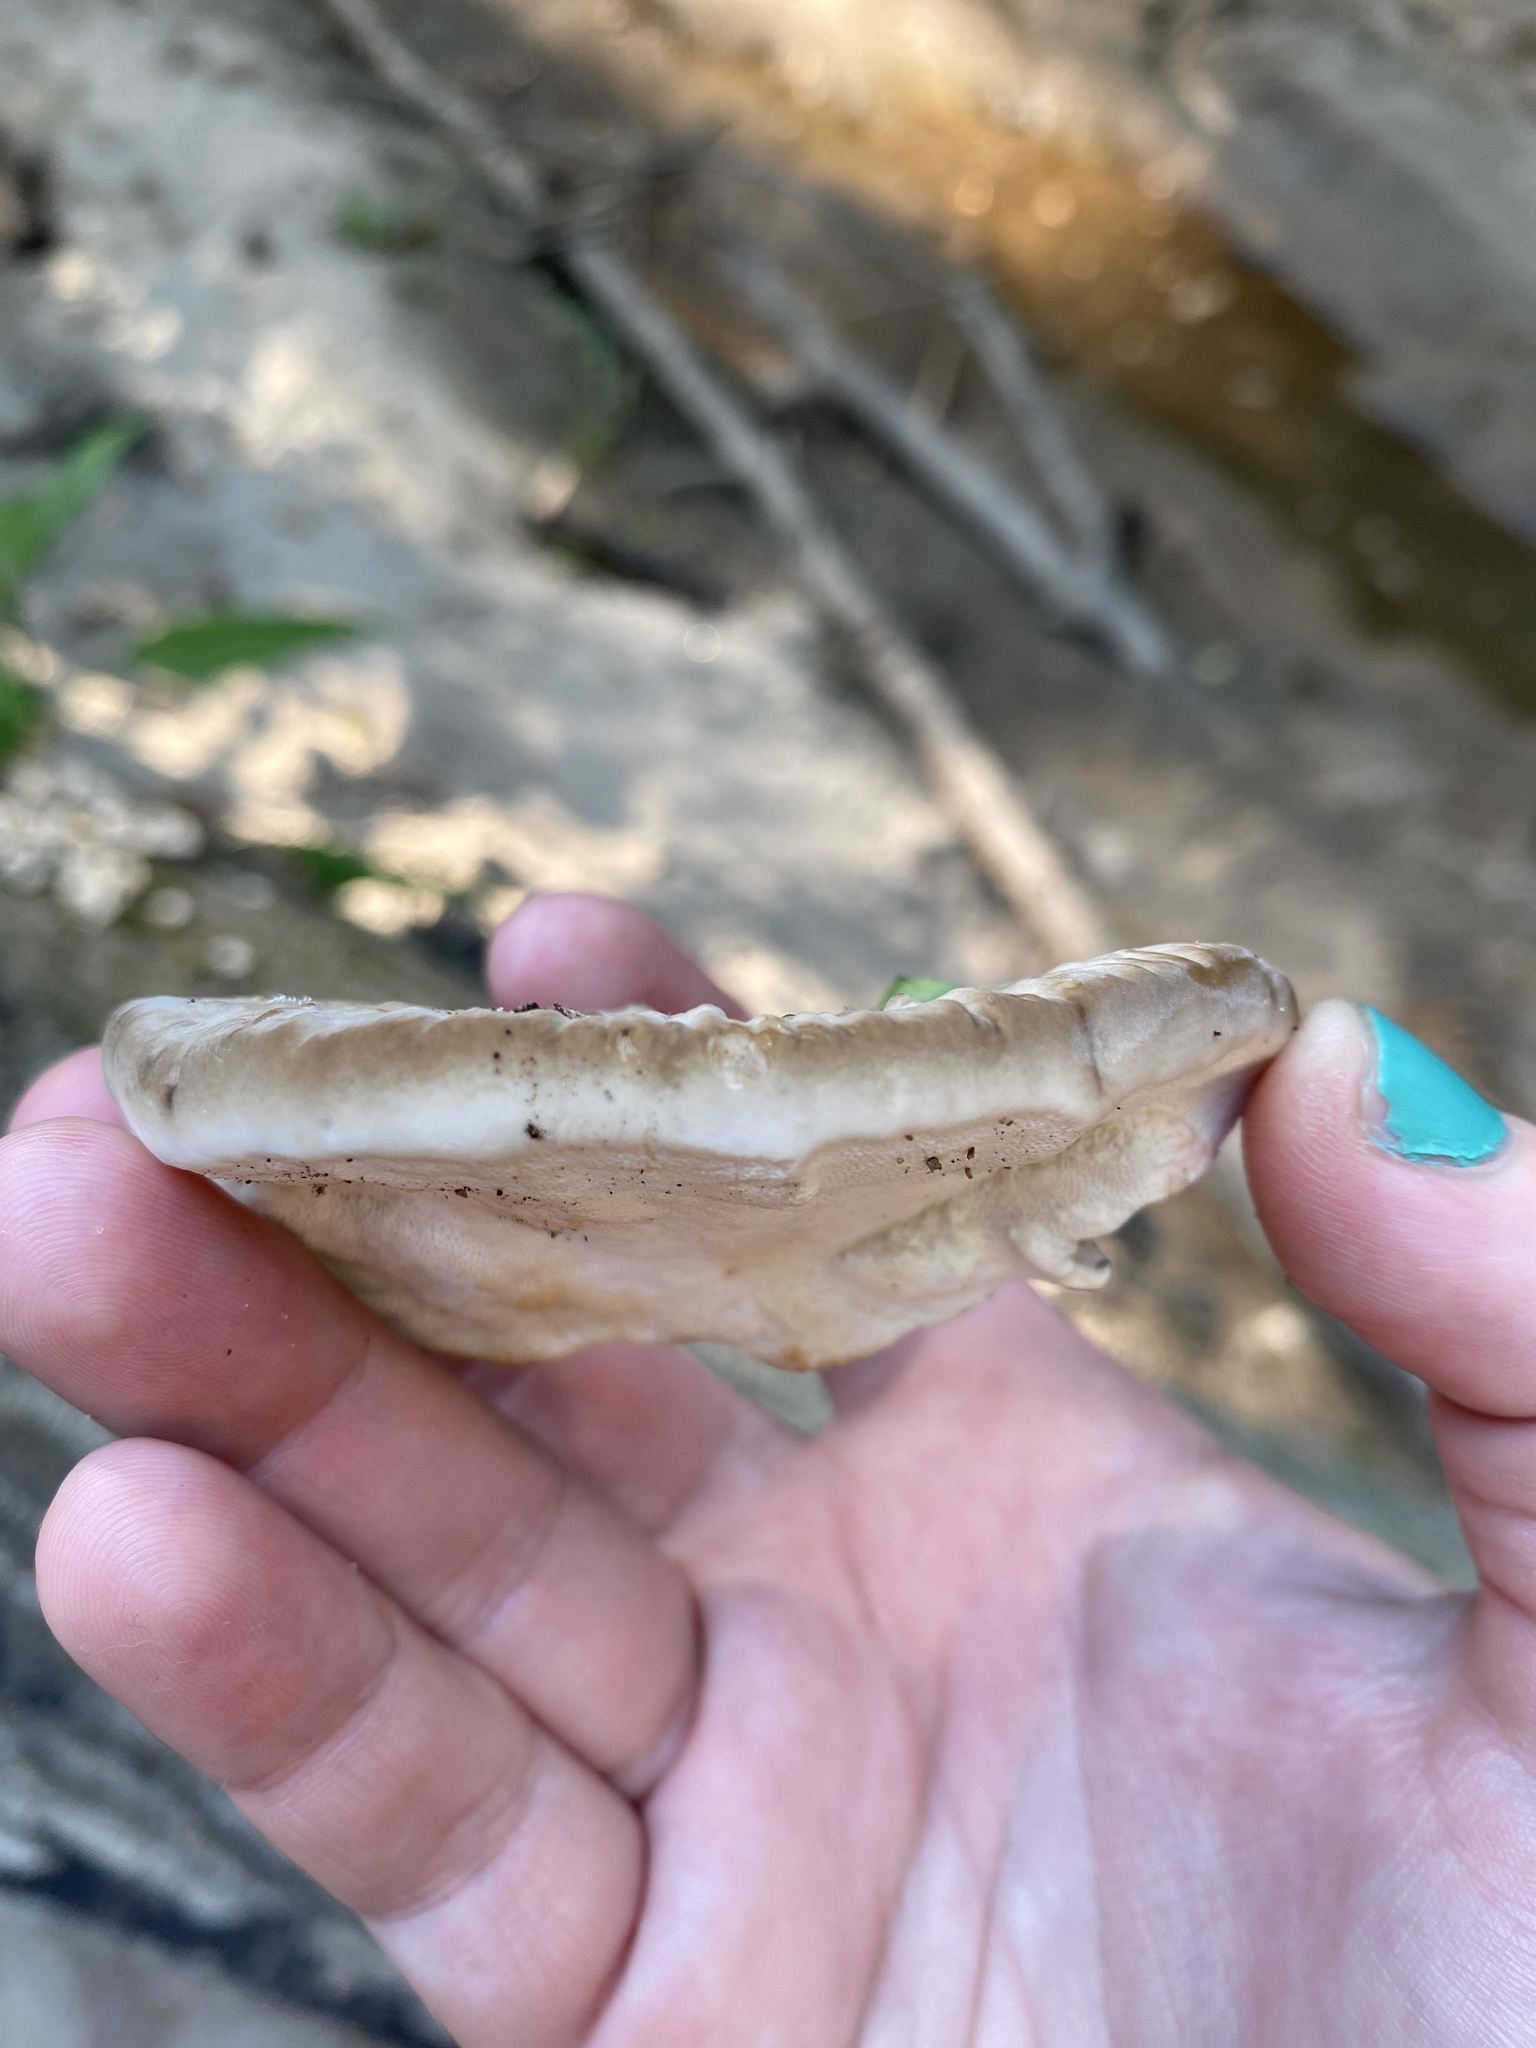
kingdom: Fungi
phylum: Basidiomycota
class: Agaricomycetes
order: Polyporales
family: Polyporaceae
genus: Trametes
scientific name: Trametes lactinea
